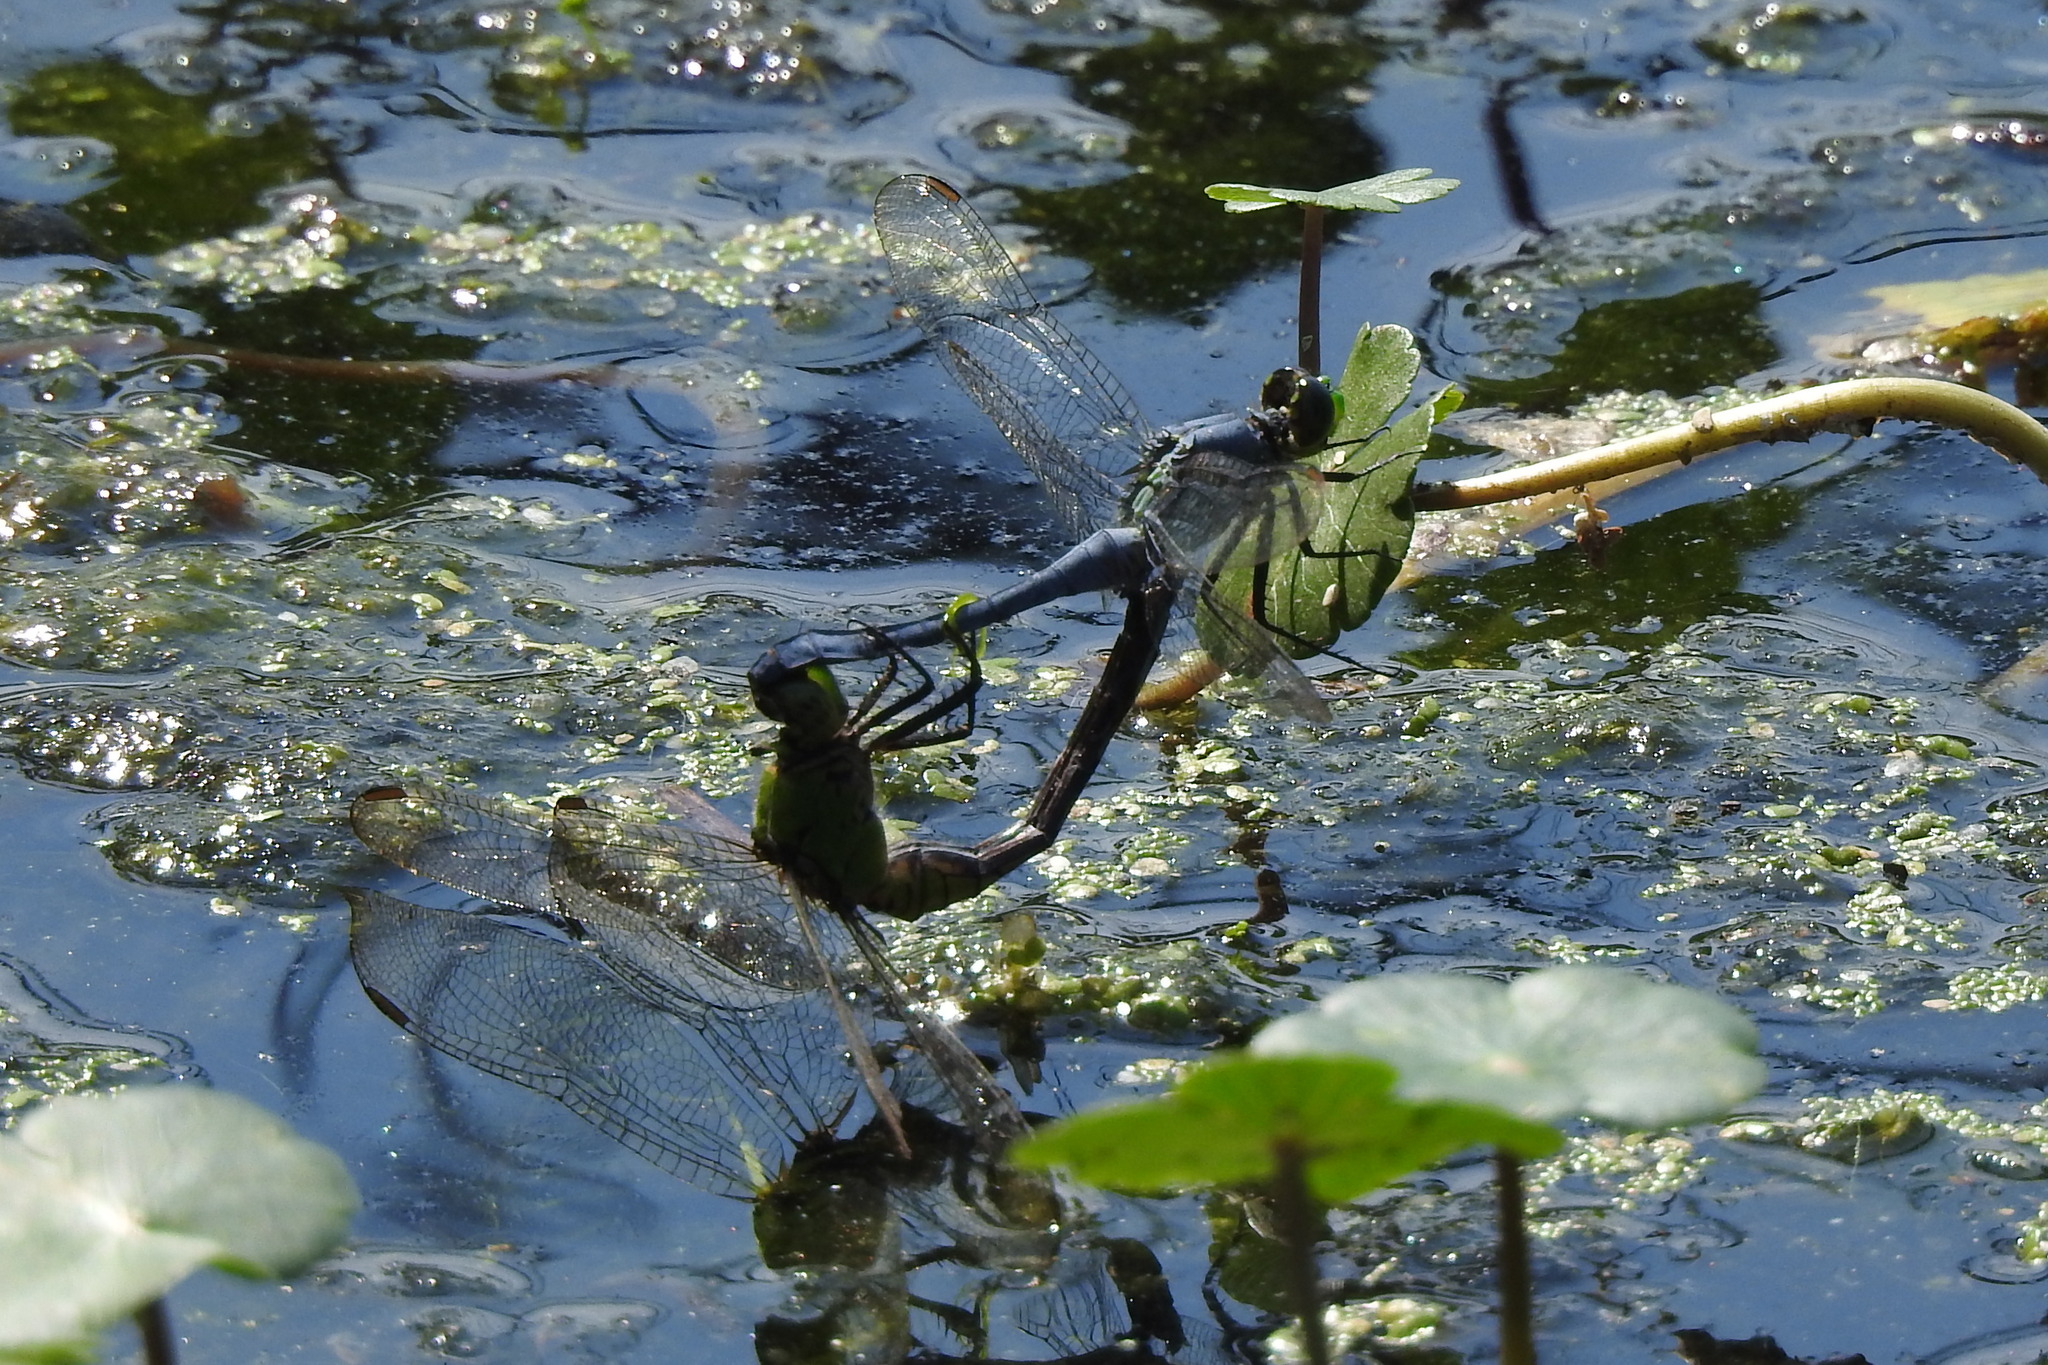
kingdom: Animalia
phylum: Arthropoda
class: Insecta
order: Odonata
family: Libellulidae
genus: Erythemis
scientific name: Erythemis simplicicollis
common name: Eastern pondhawk
